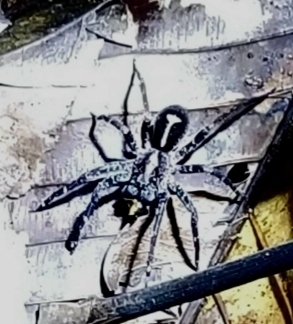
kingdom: Animalia
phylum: Arthropoda
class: Arachnida
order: Araneae
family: Ctenidae
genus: Ctenus
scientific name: Ctenus amphora
